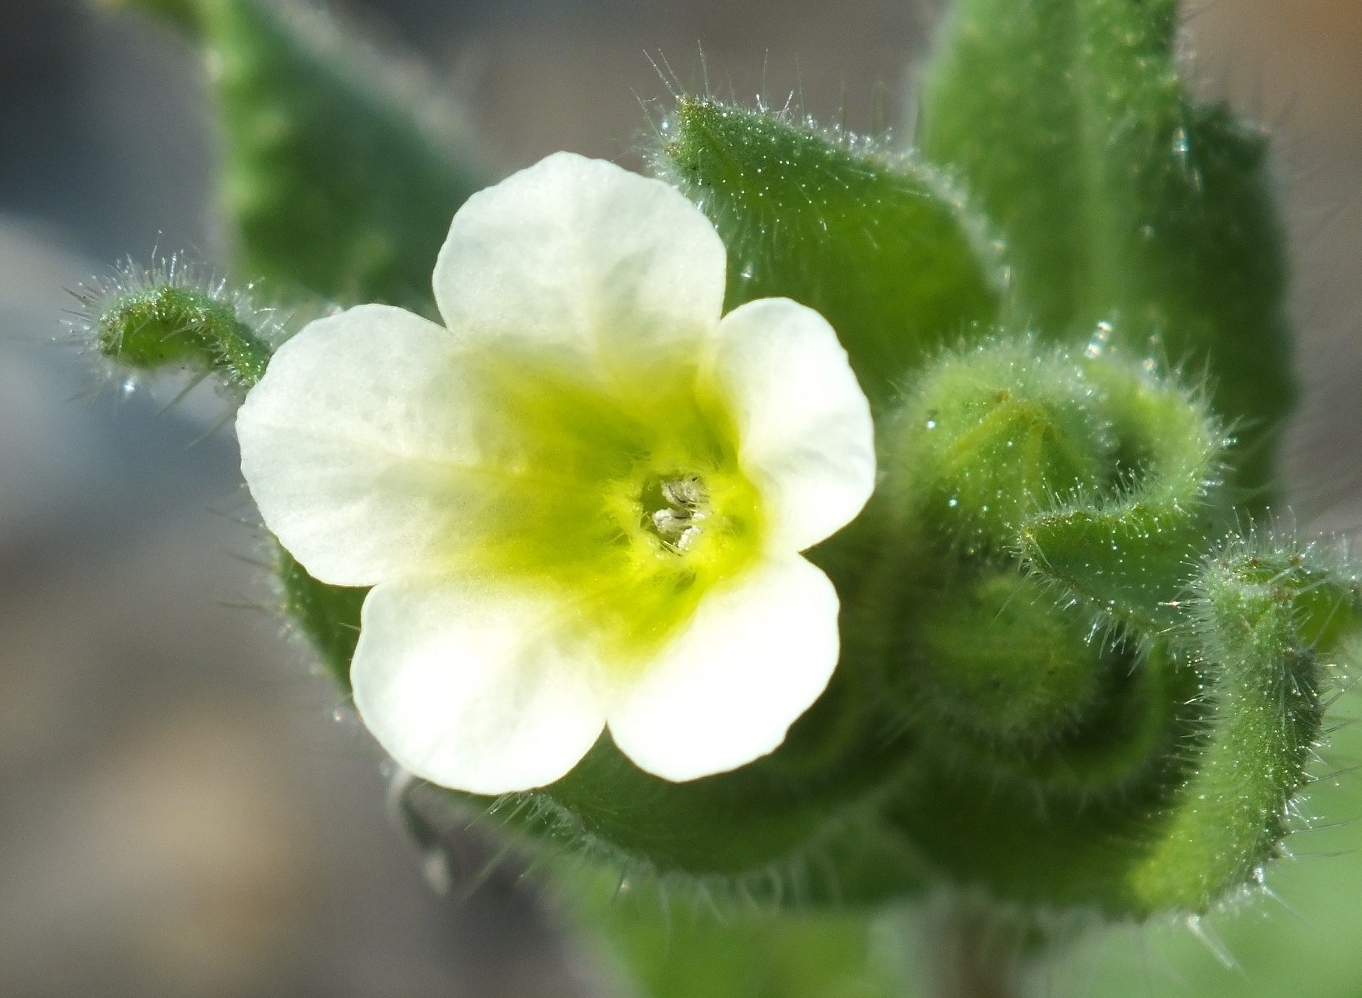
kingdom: Plantae
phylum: Tracheophyta
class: Magnoliopsida
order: Boraginales
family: Boraginaceae
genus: Nonea
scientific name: Nonea lutea
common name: Yellow nonea
